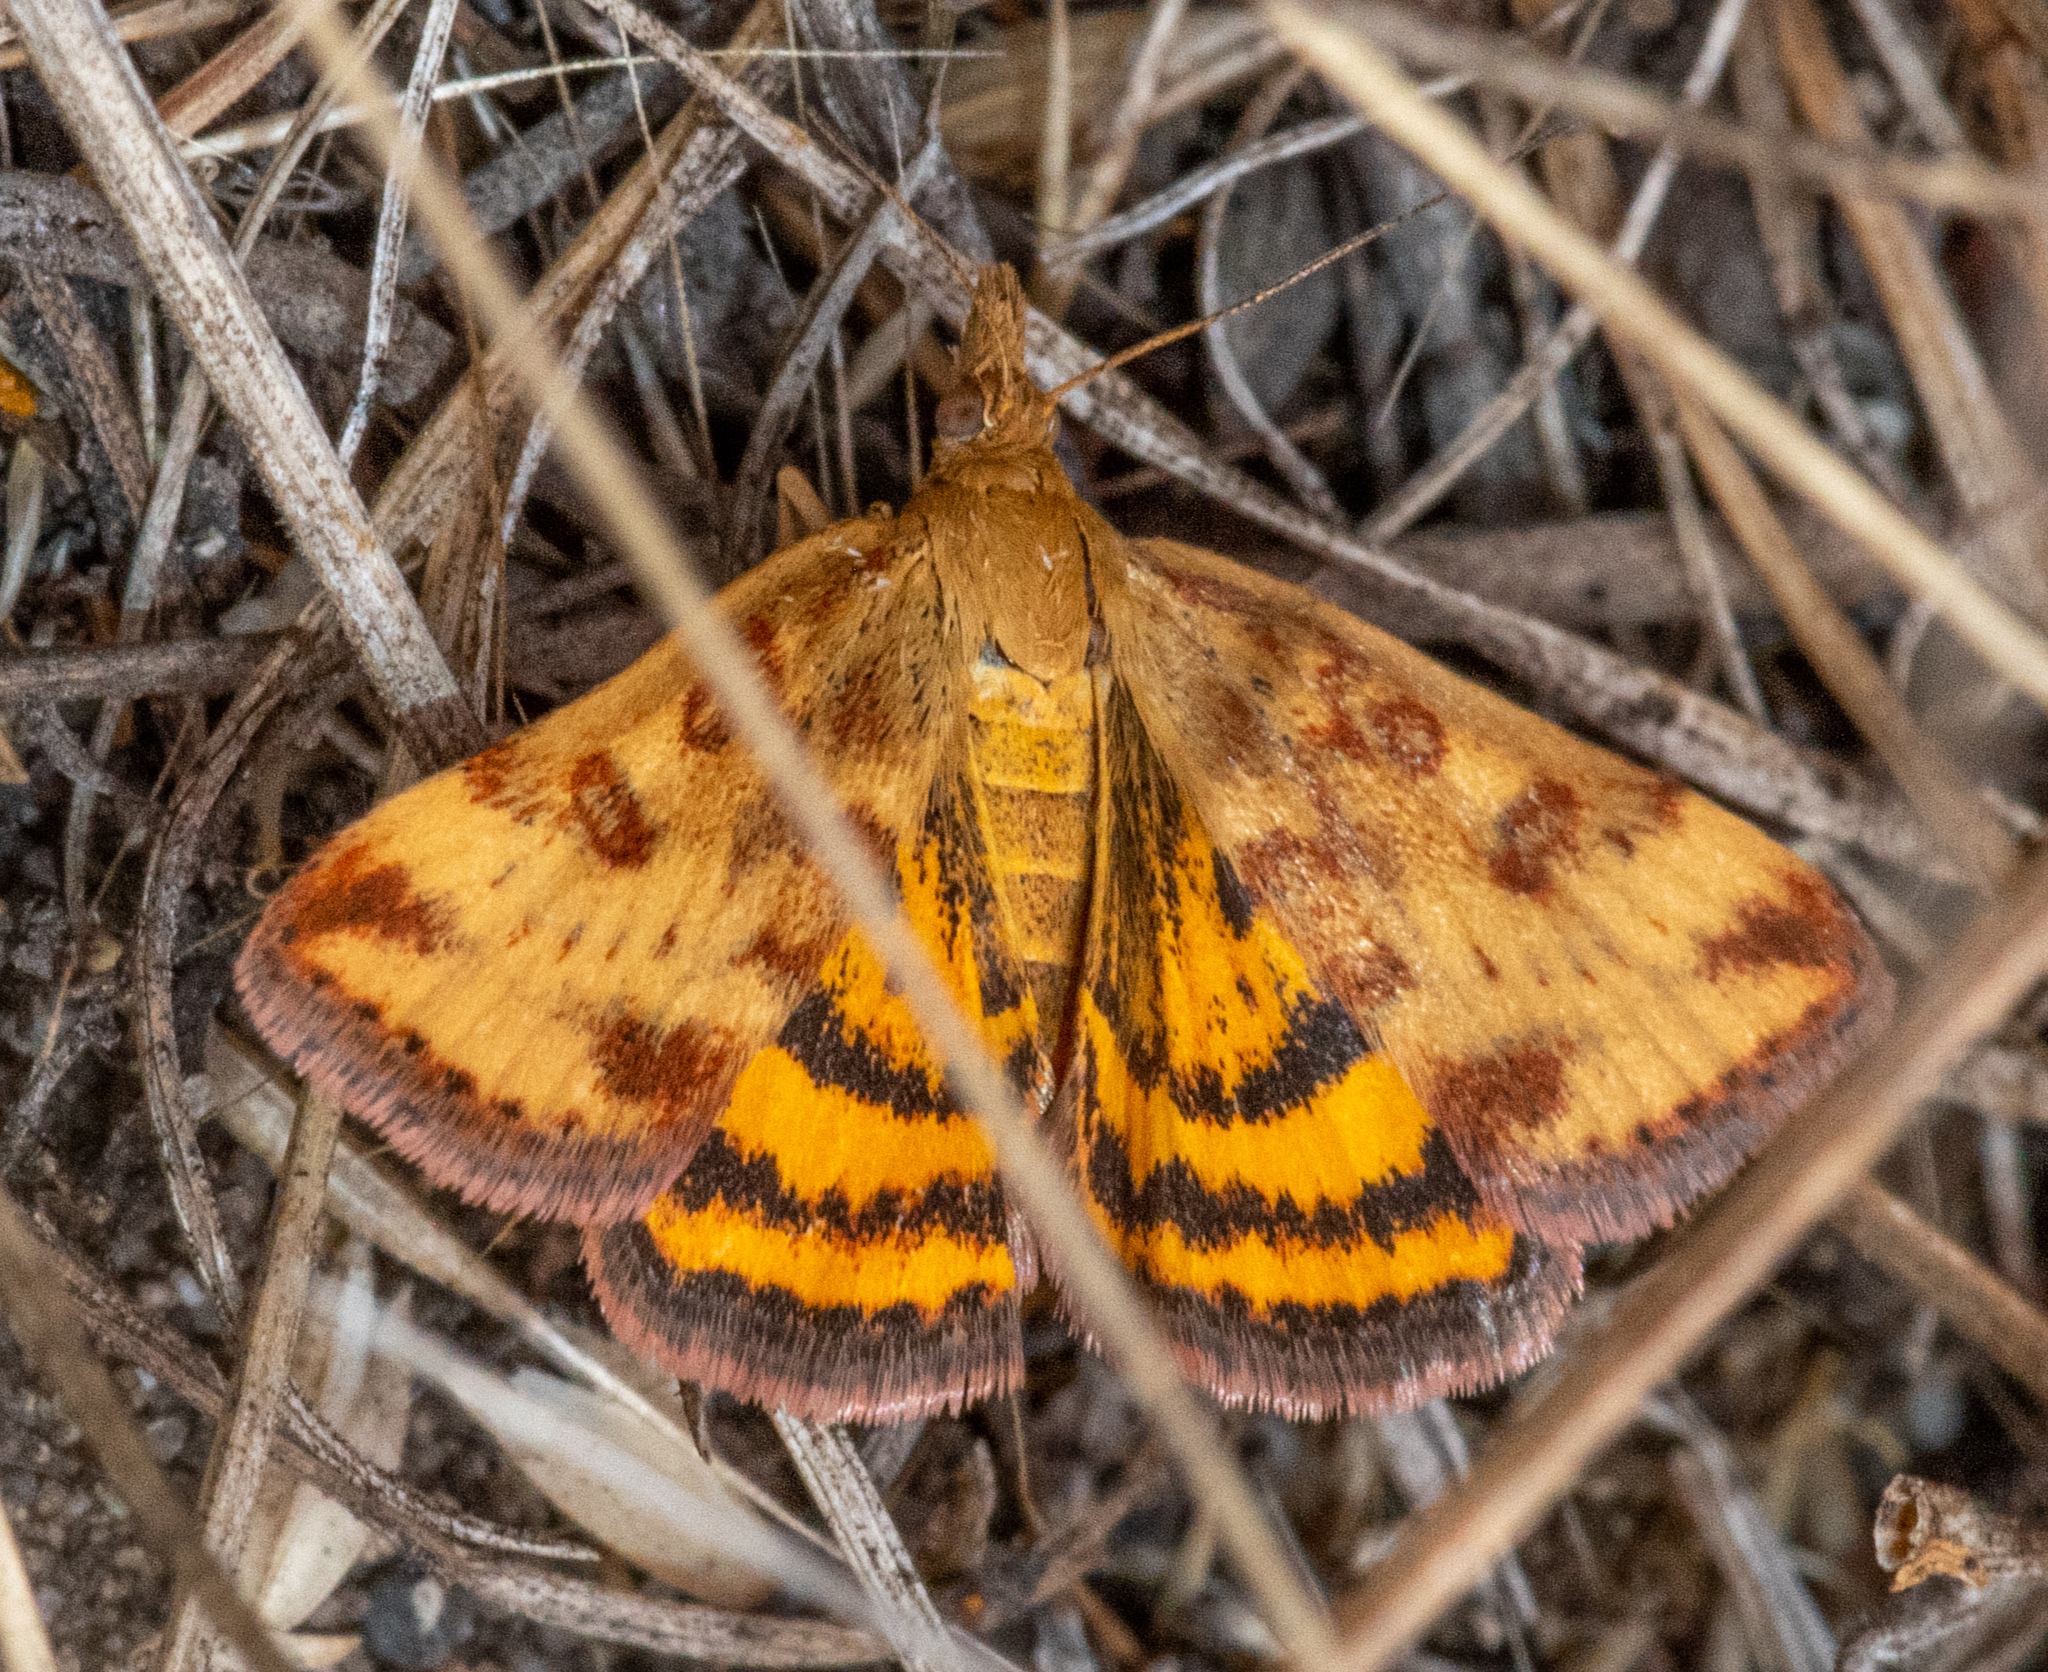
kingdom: Animalia
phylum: Arthropoda
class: Insecta
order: Lepidoptera
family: Crambidae
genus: Pyrausta
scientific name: Pyrausta subsequalis
